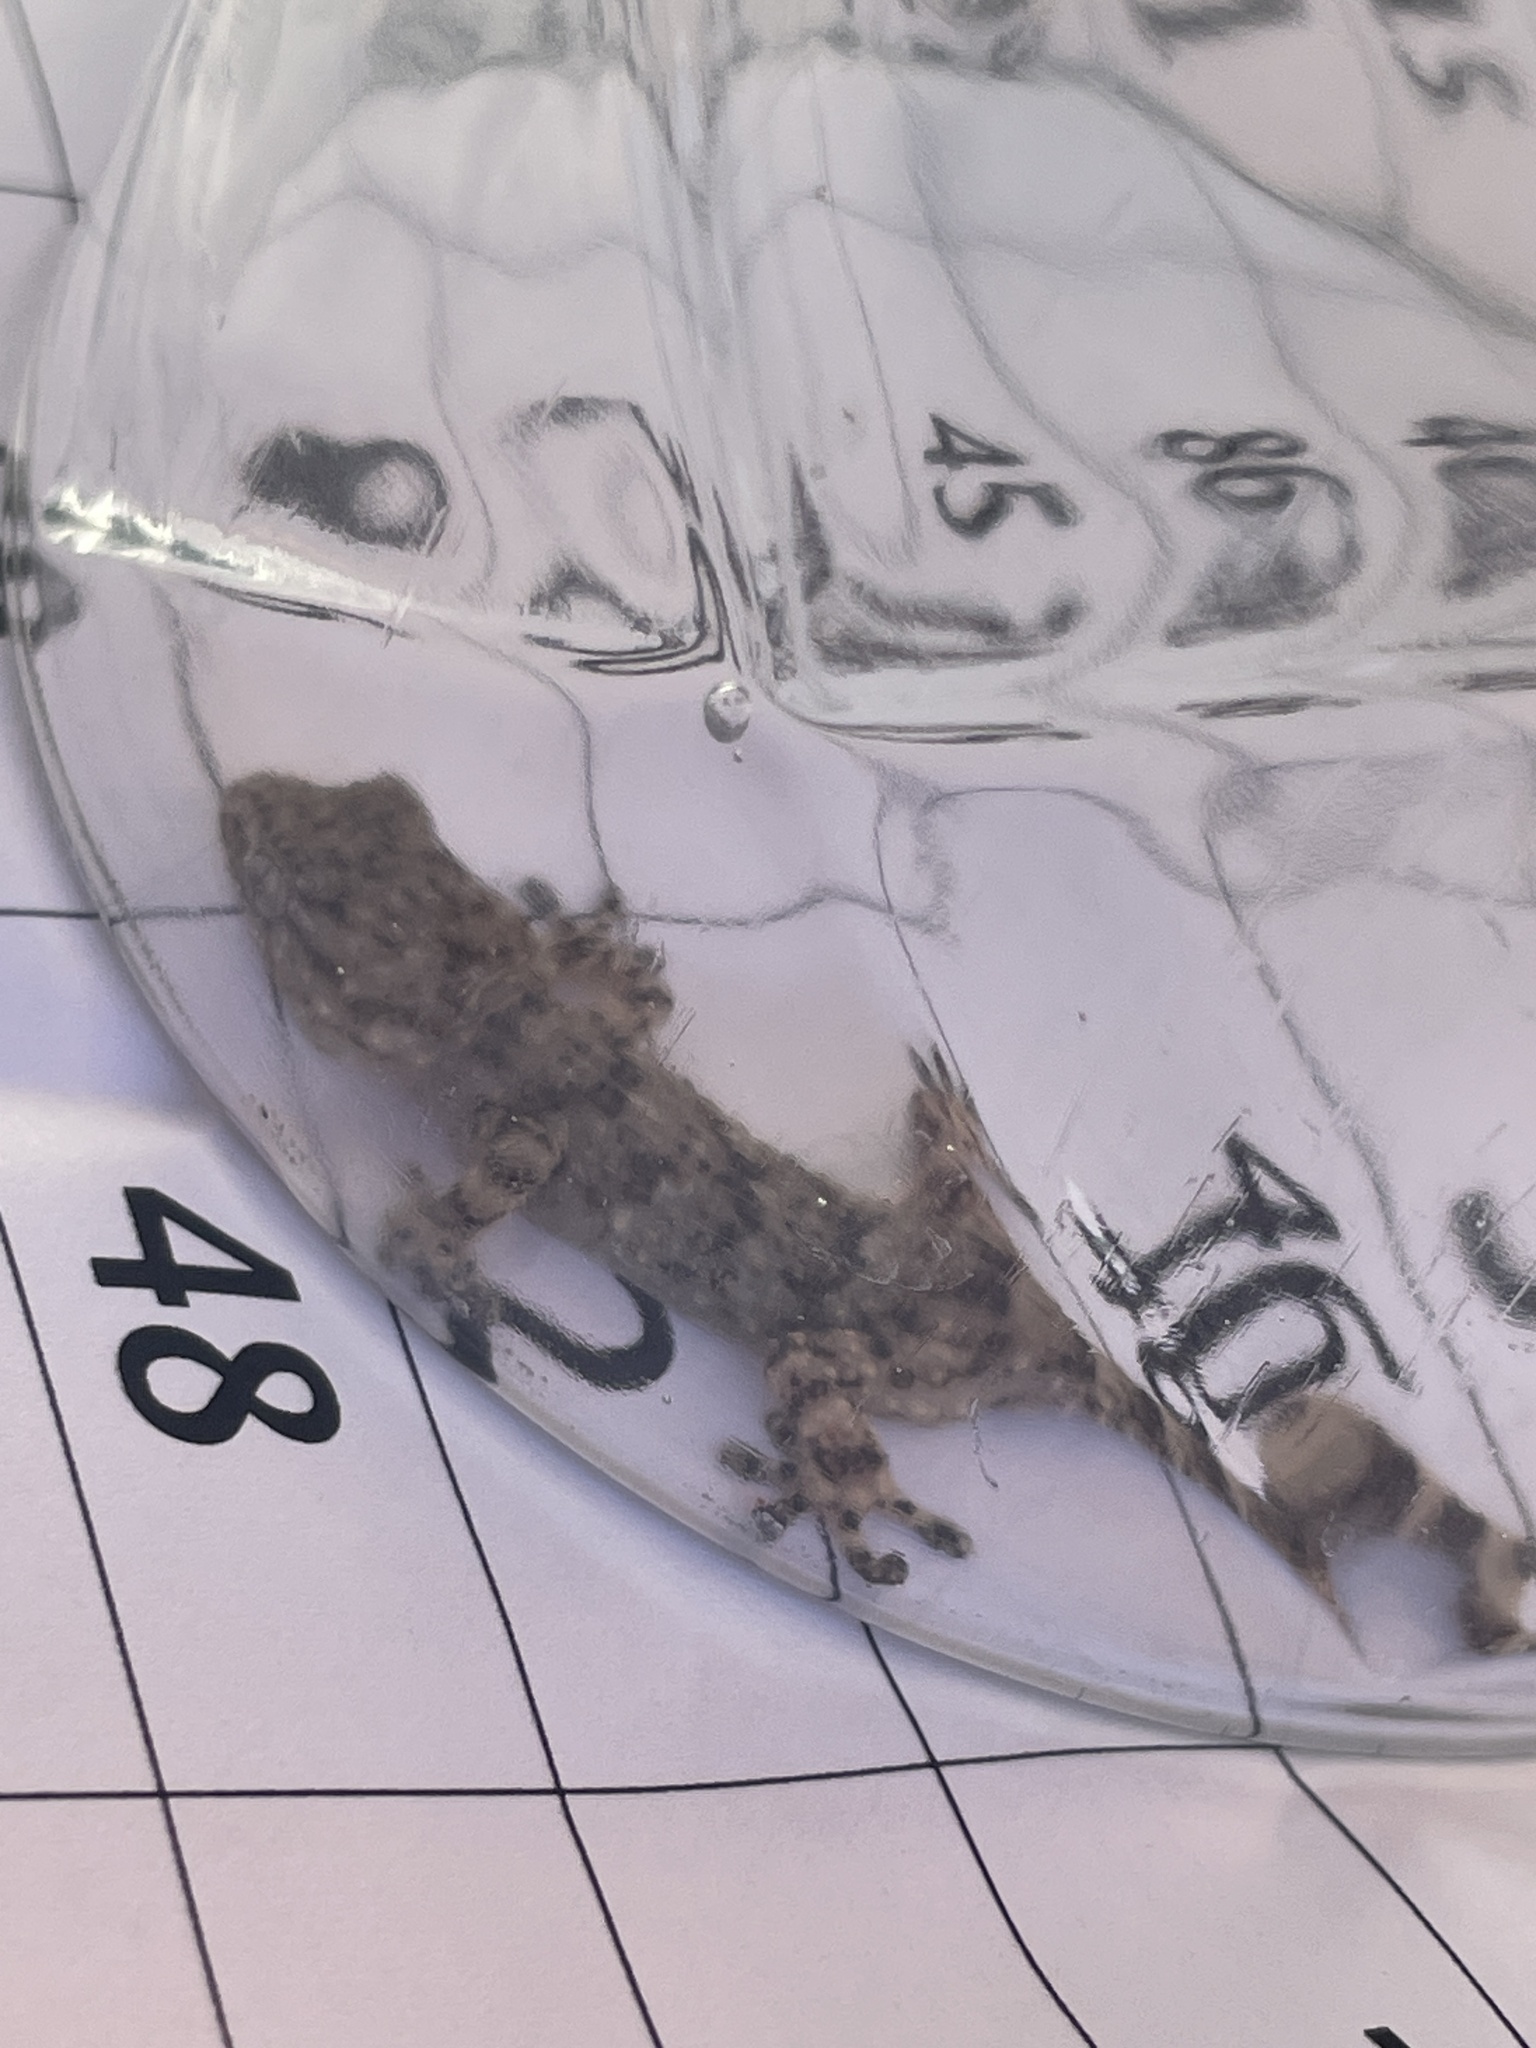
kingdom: Animalia
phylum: Chordata
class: Squamata
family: Phyllodactylidae
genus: Tarentola
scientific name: Tarentola mauritanica
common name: Moorish gecko
